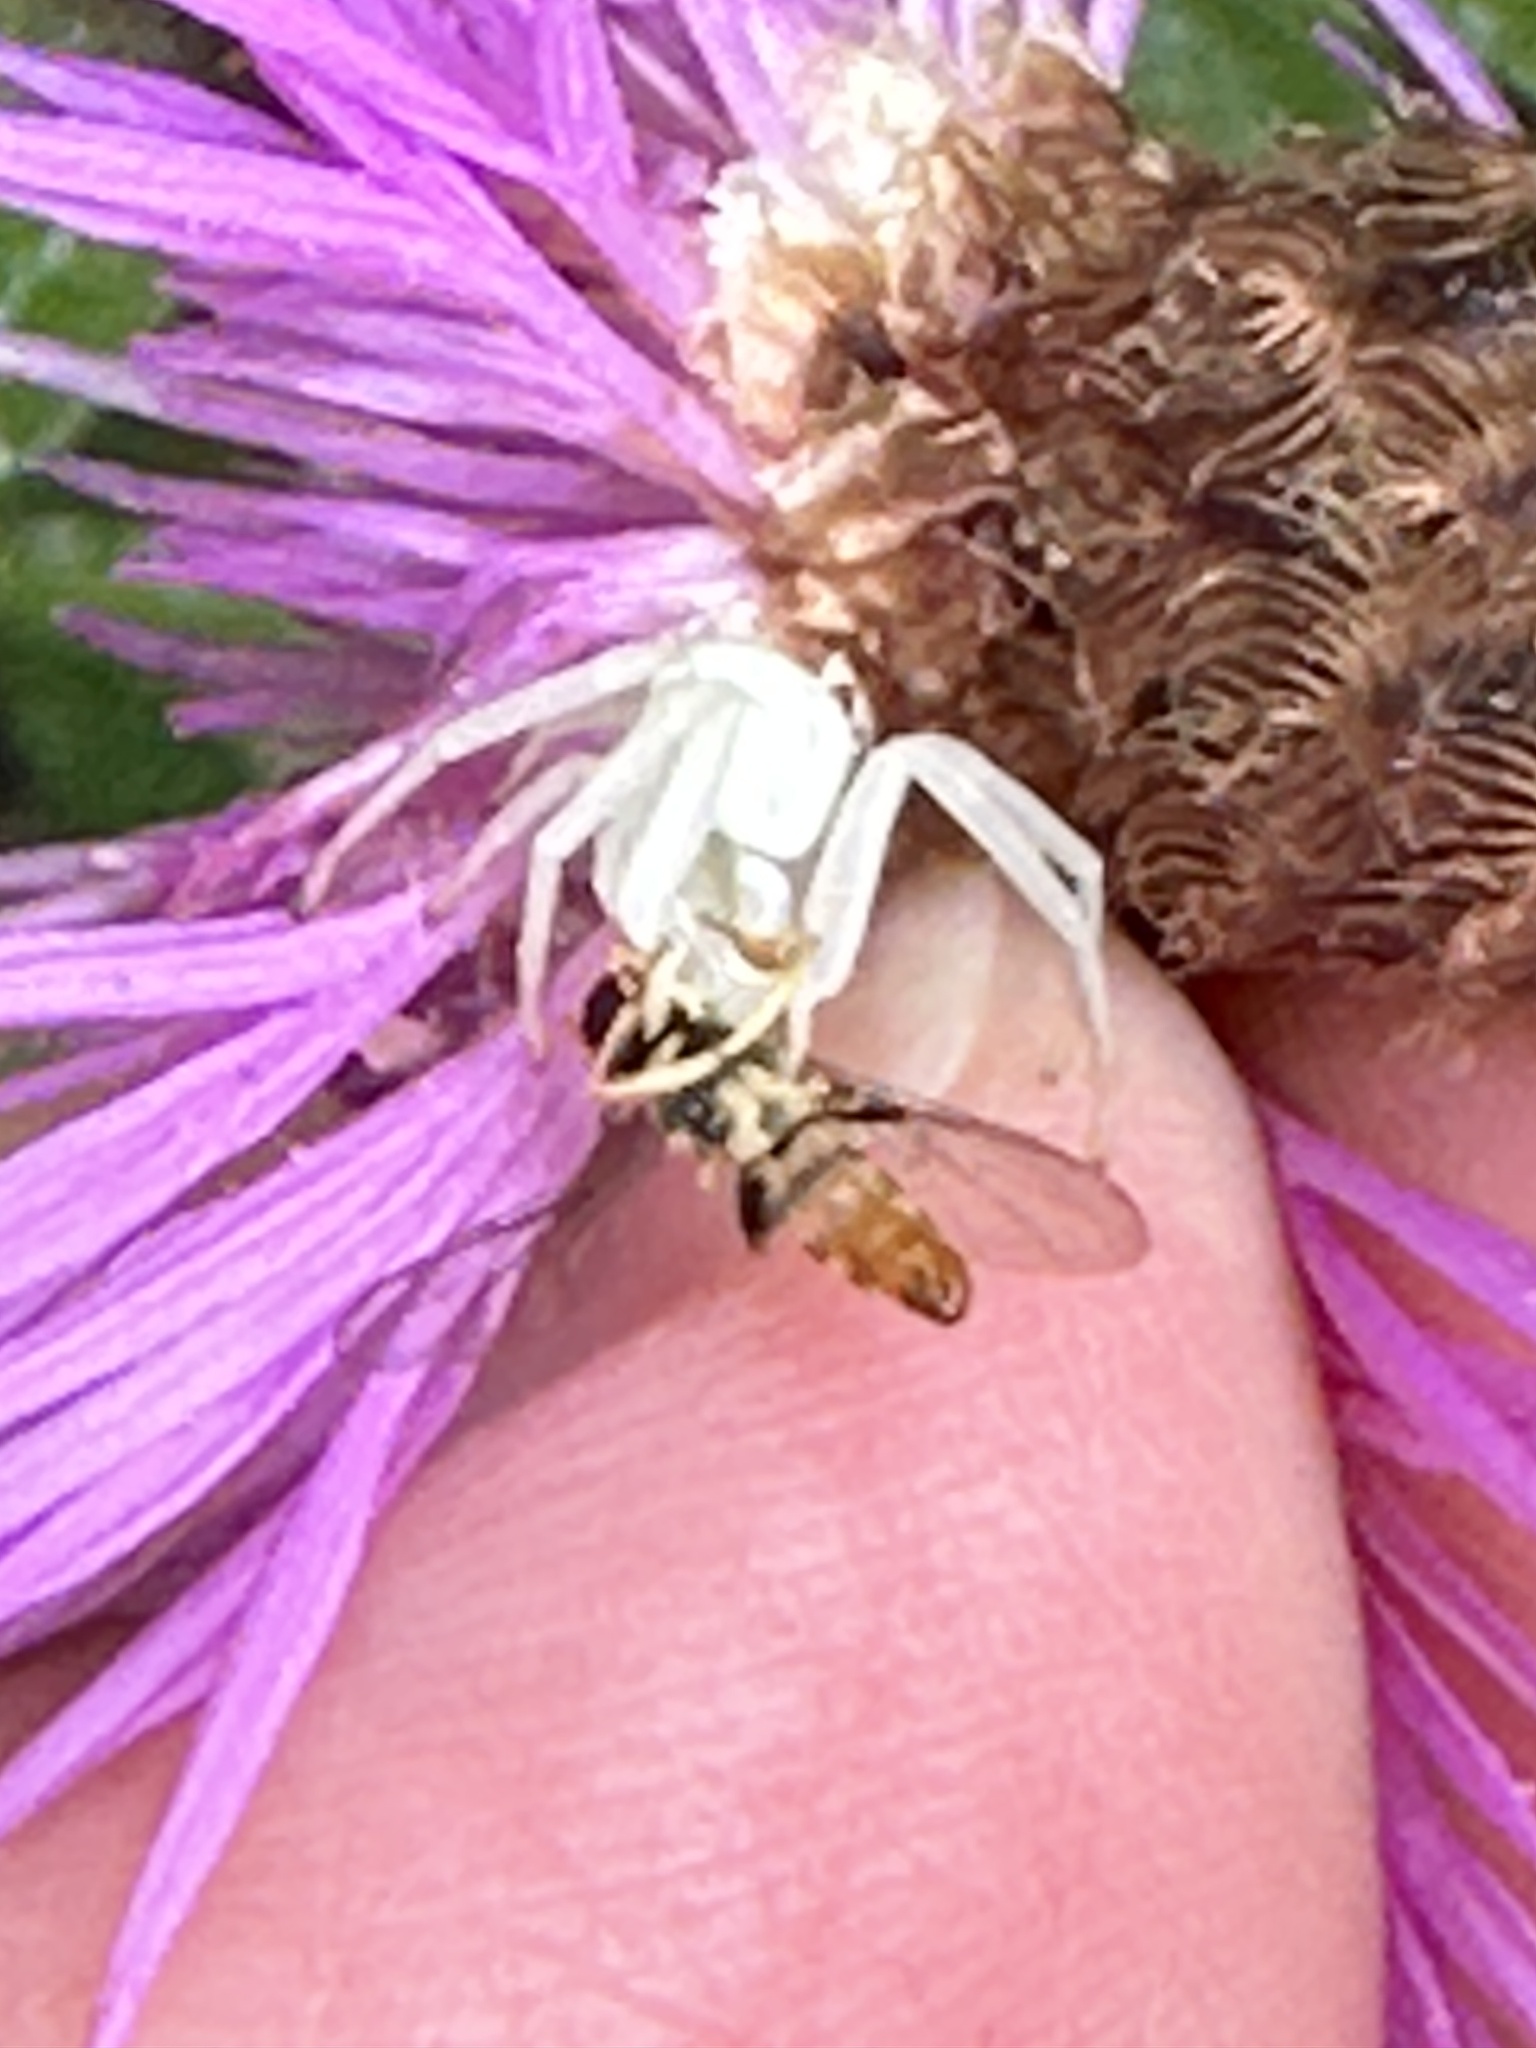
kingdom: Animalia
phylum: Arthropoda
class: Arachnida
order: Araneae
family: Thomisidae
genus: Misumena
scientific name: Misumena vatia
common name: Goldenrod crab spider
